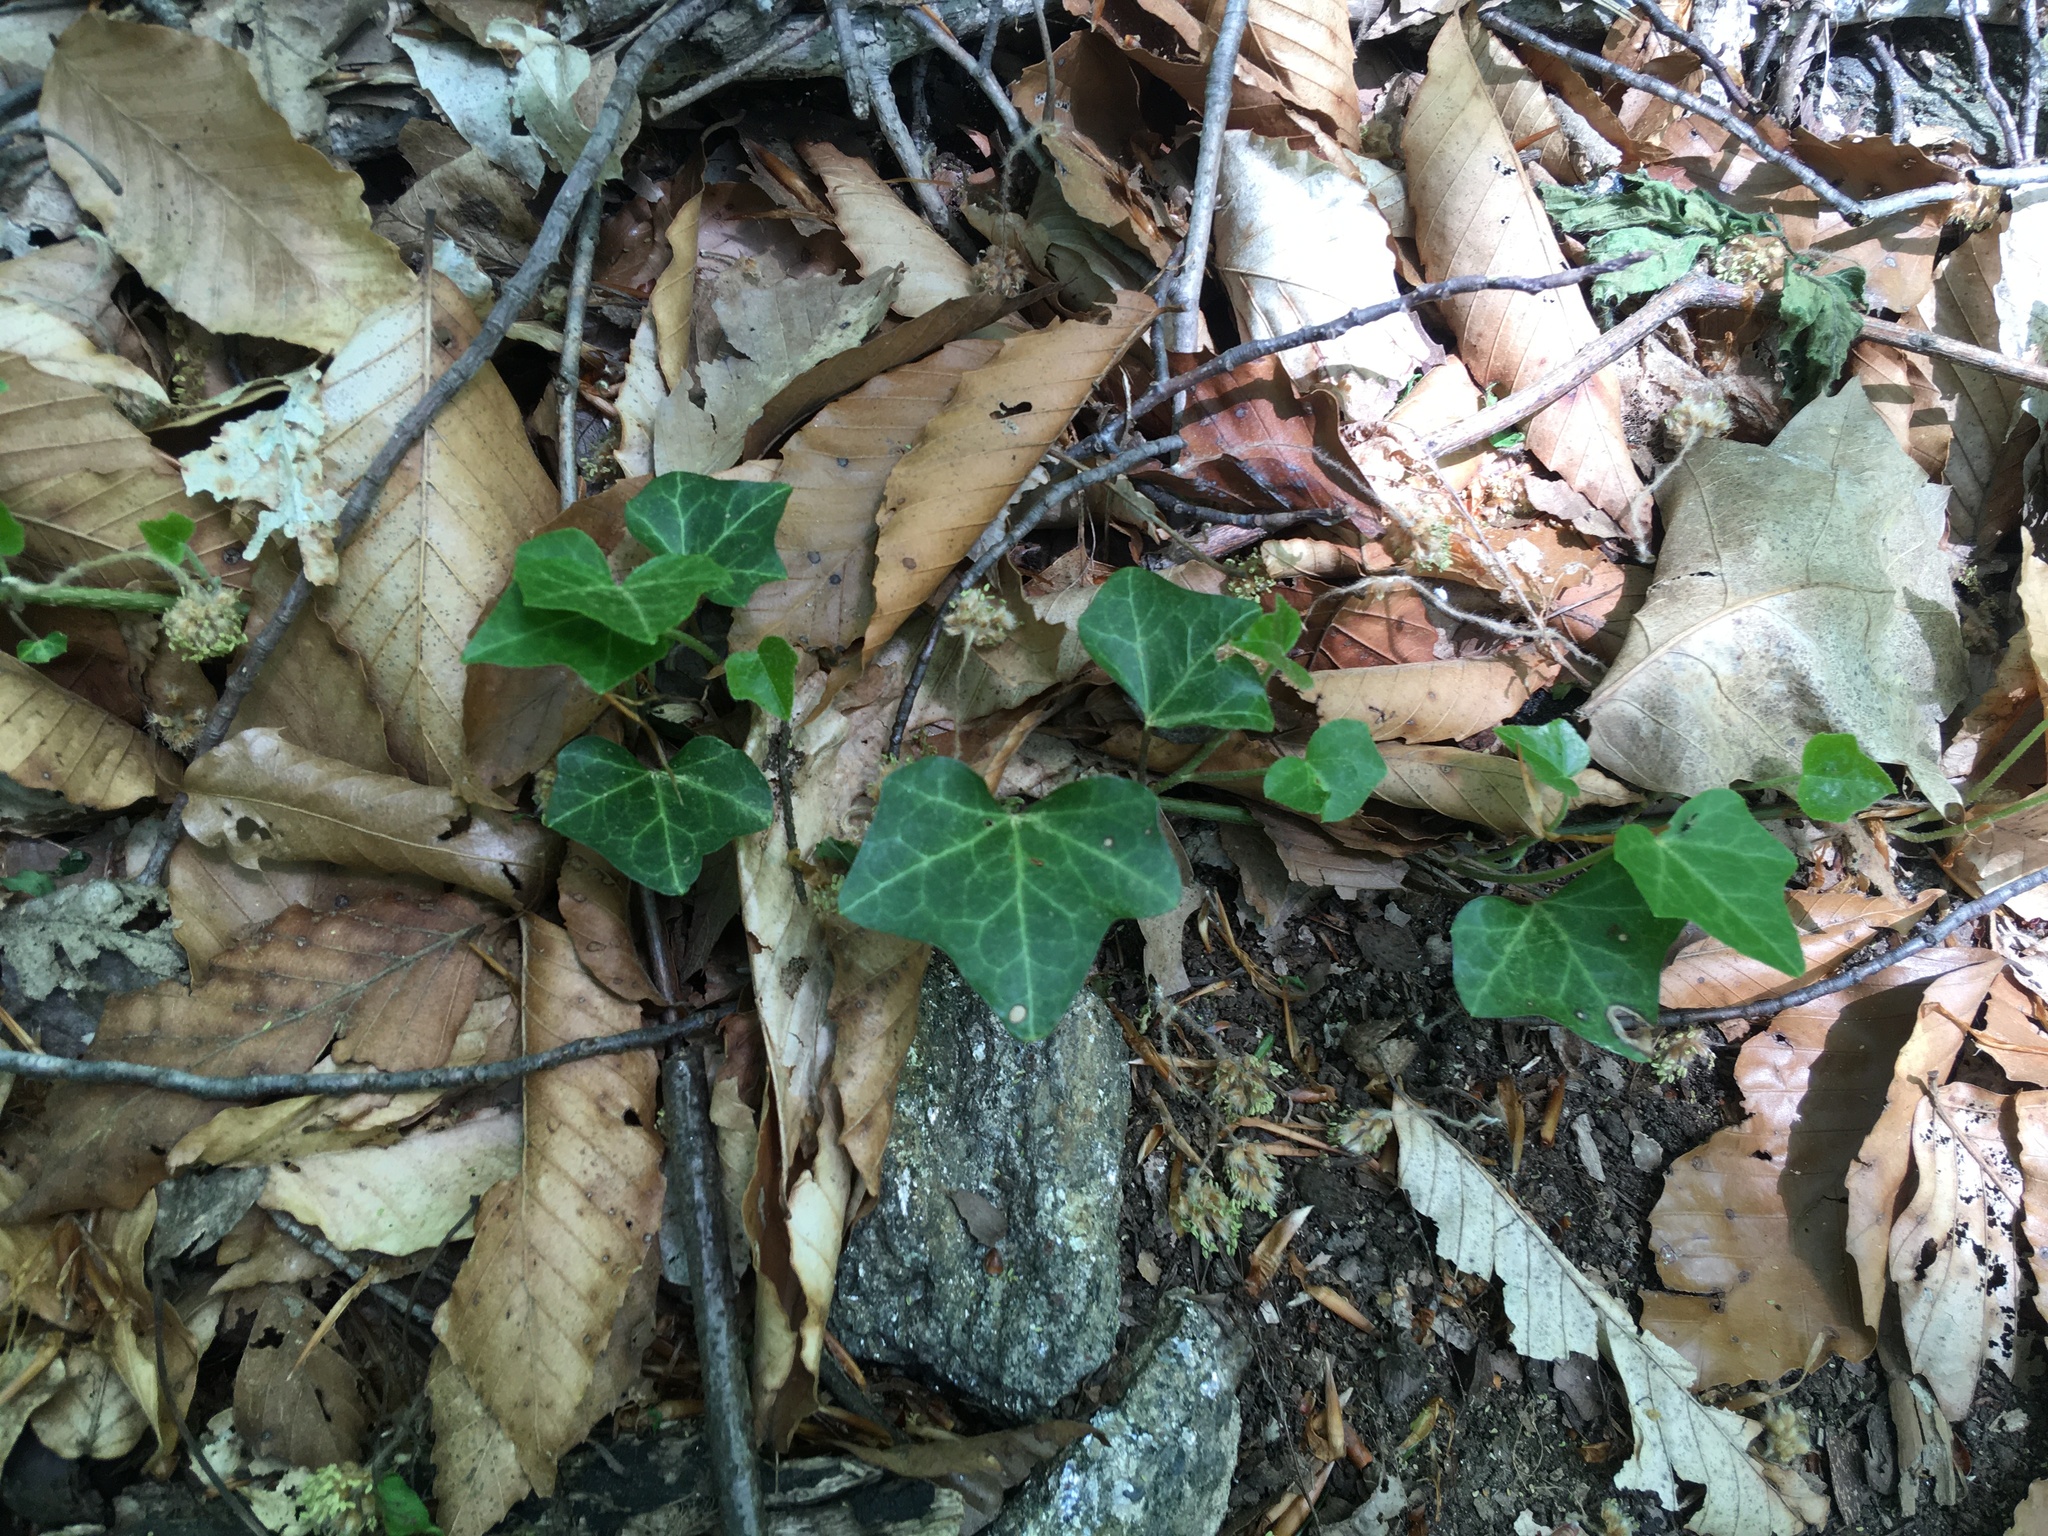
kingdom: Plantae
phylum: Tracheophyta
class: Magnoliopsida
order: Apiales
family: Araliaceae
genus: Hedera
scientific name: Hedera helix
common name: Ivy
